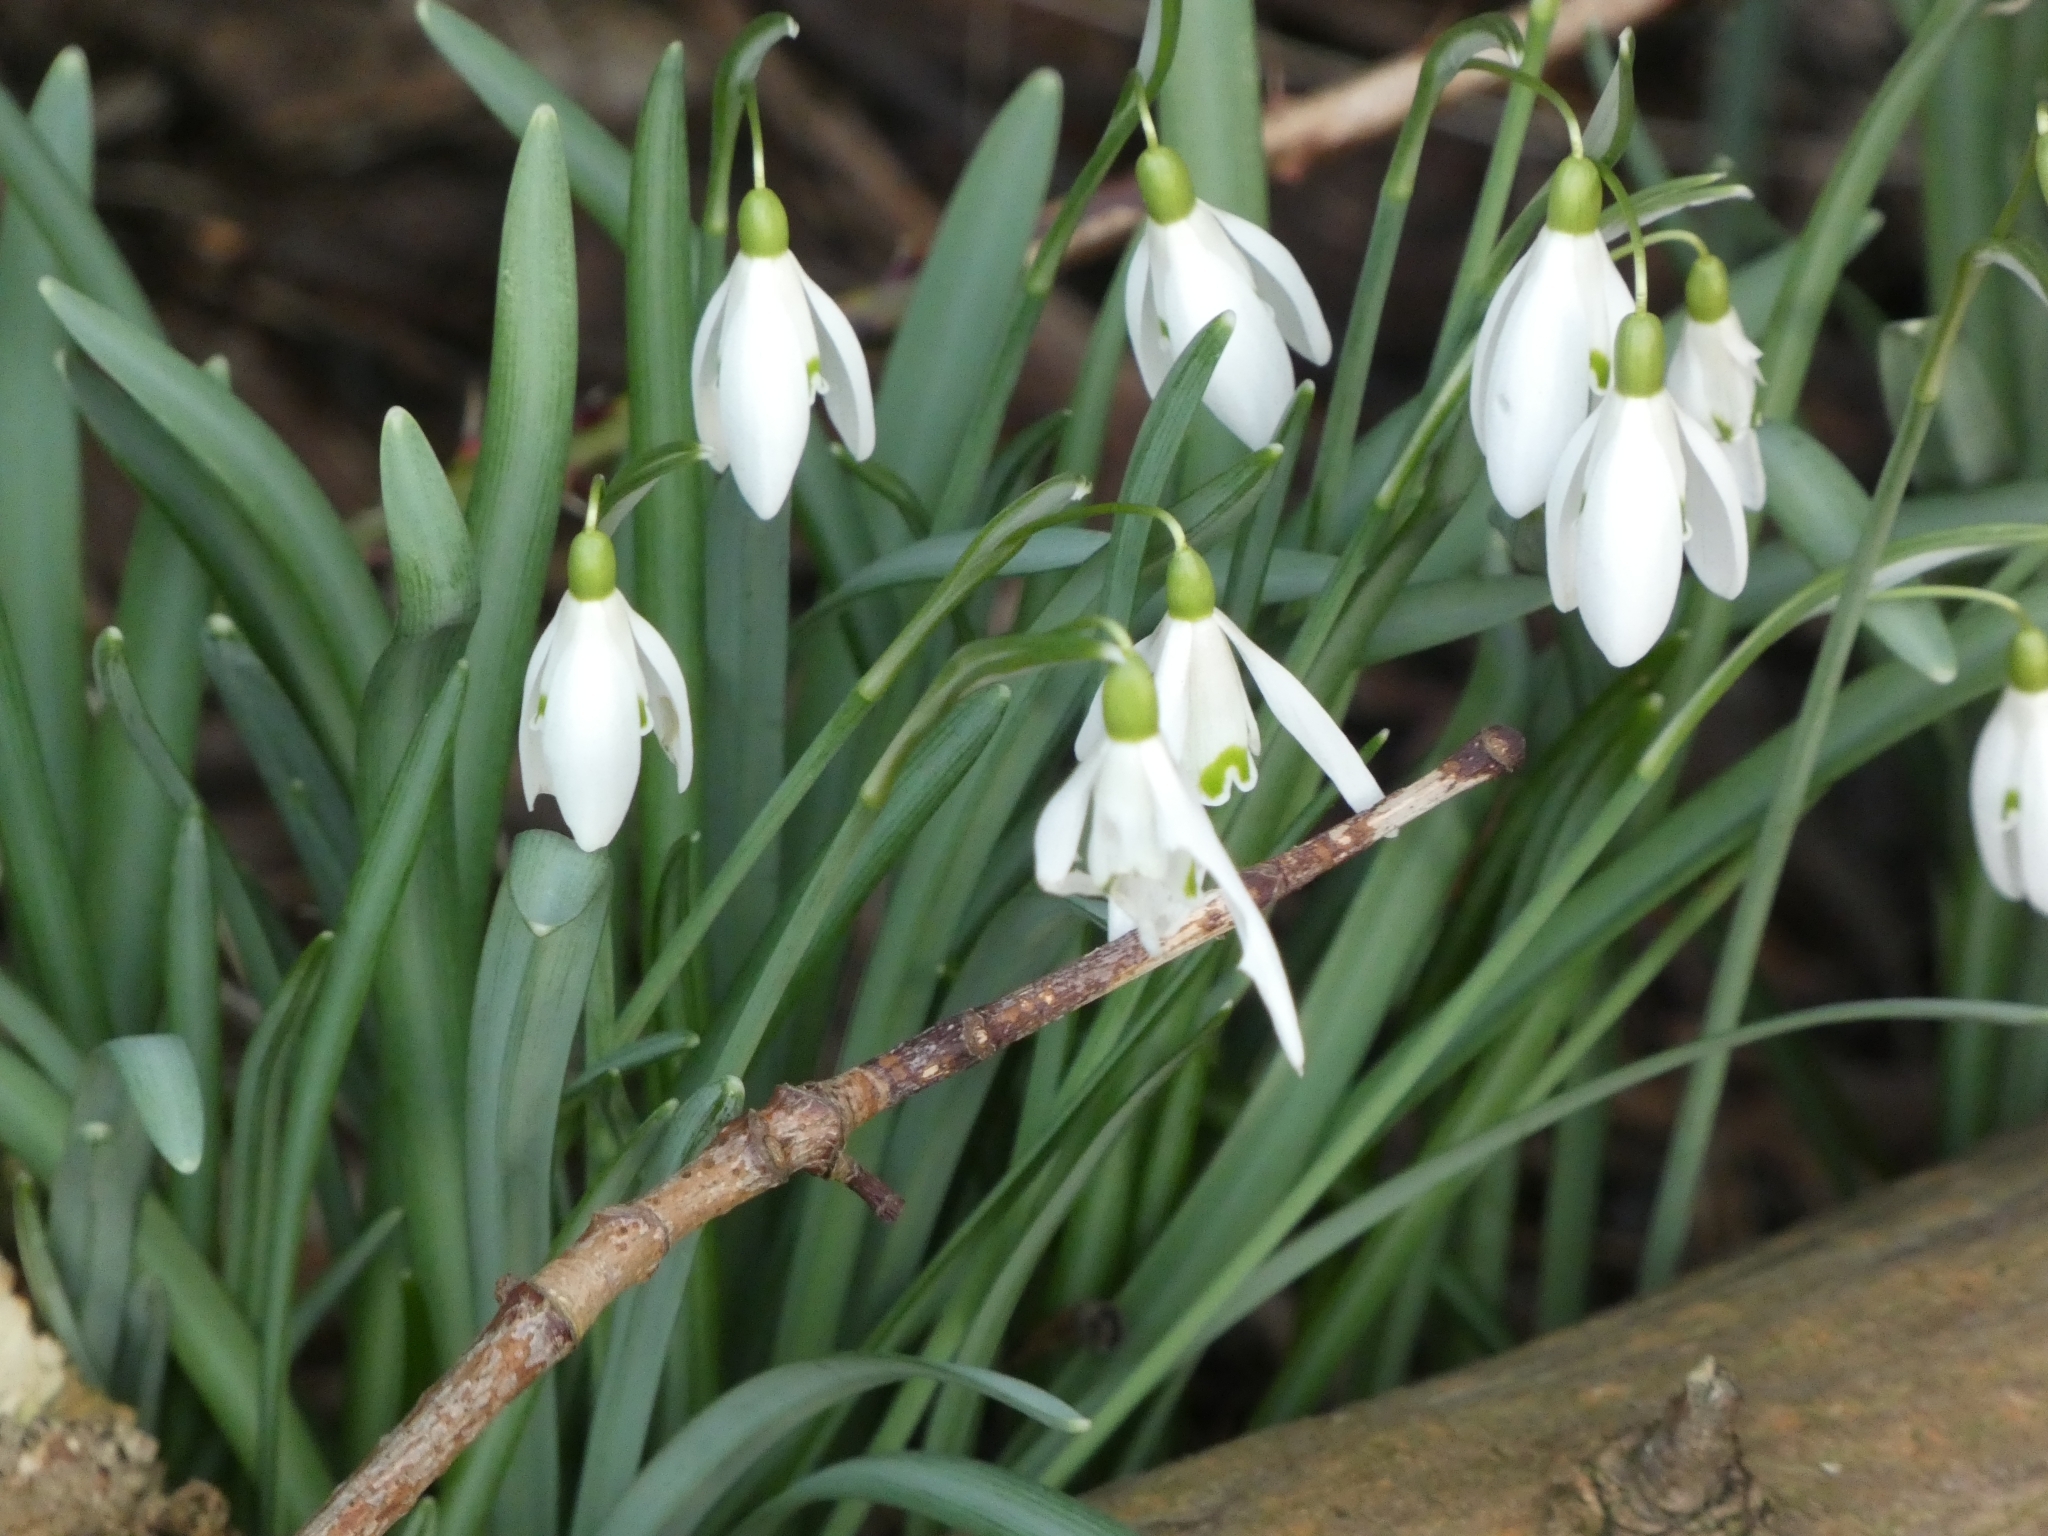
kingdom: Plantae
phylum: Tracheophyta
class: Liliopsida
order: Asparagales
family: Amaryllidaceae
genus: Galanthus
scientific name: Galanthus nivalis
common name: Snowdrop
